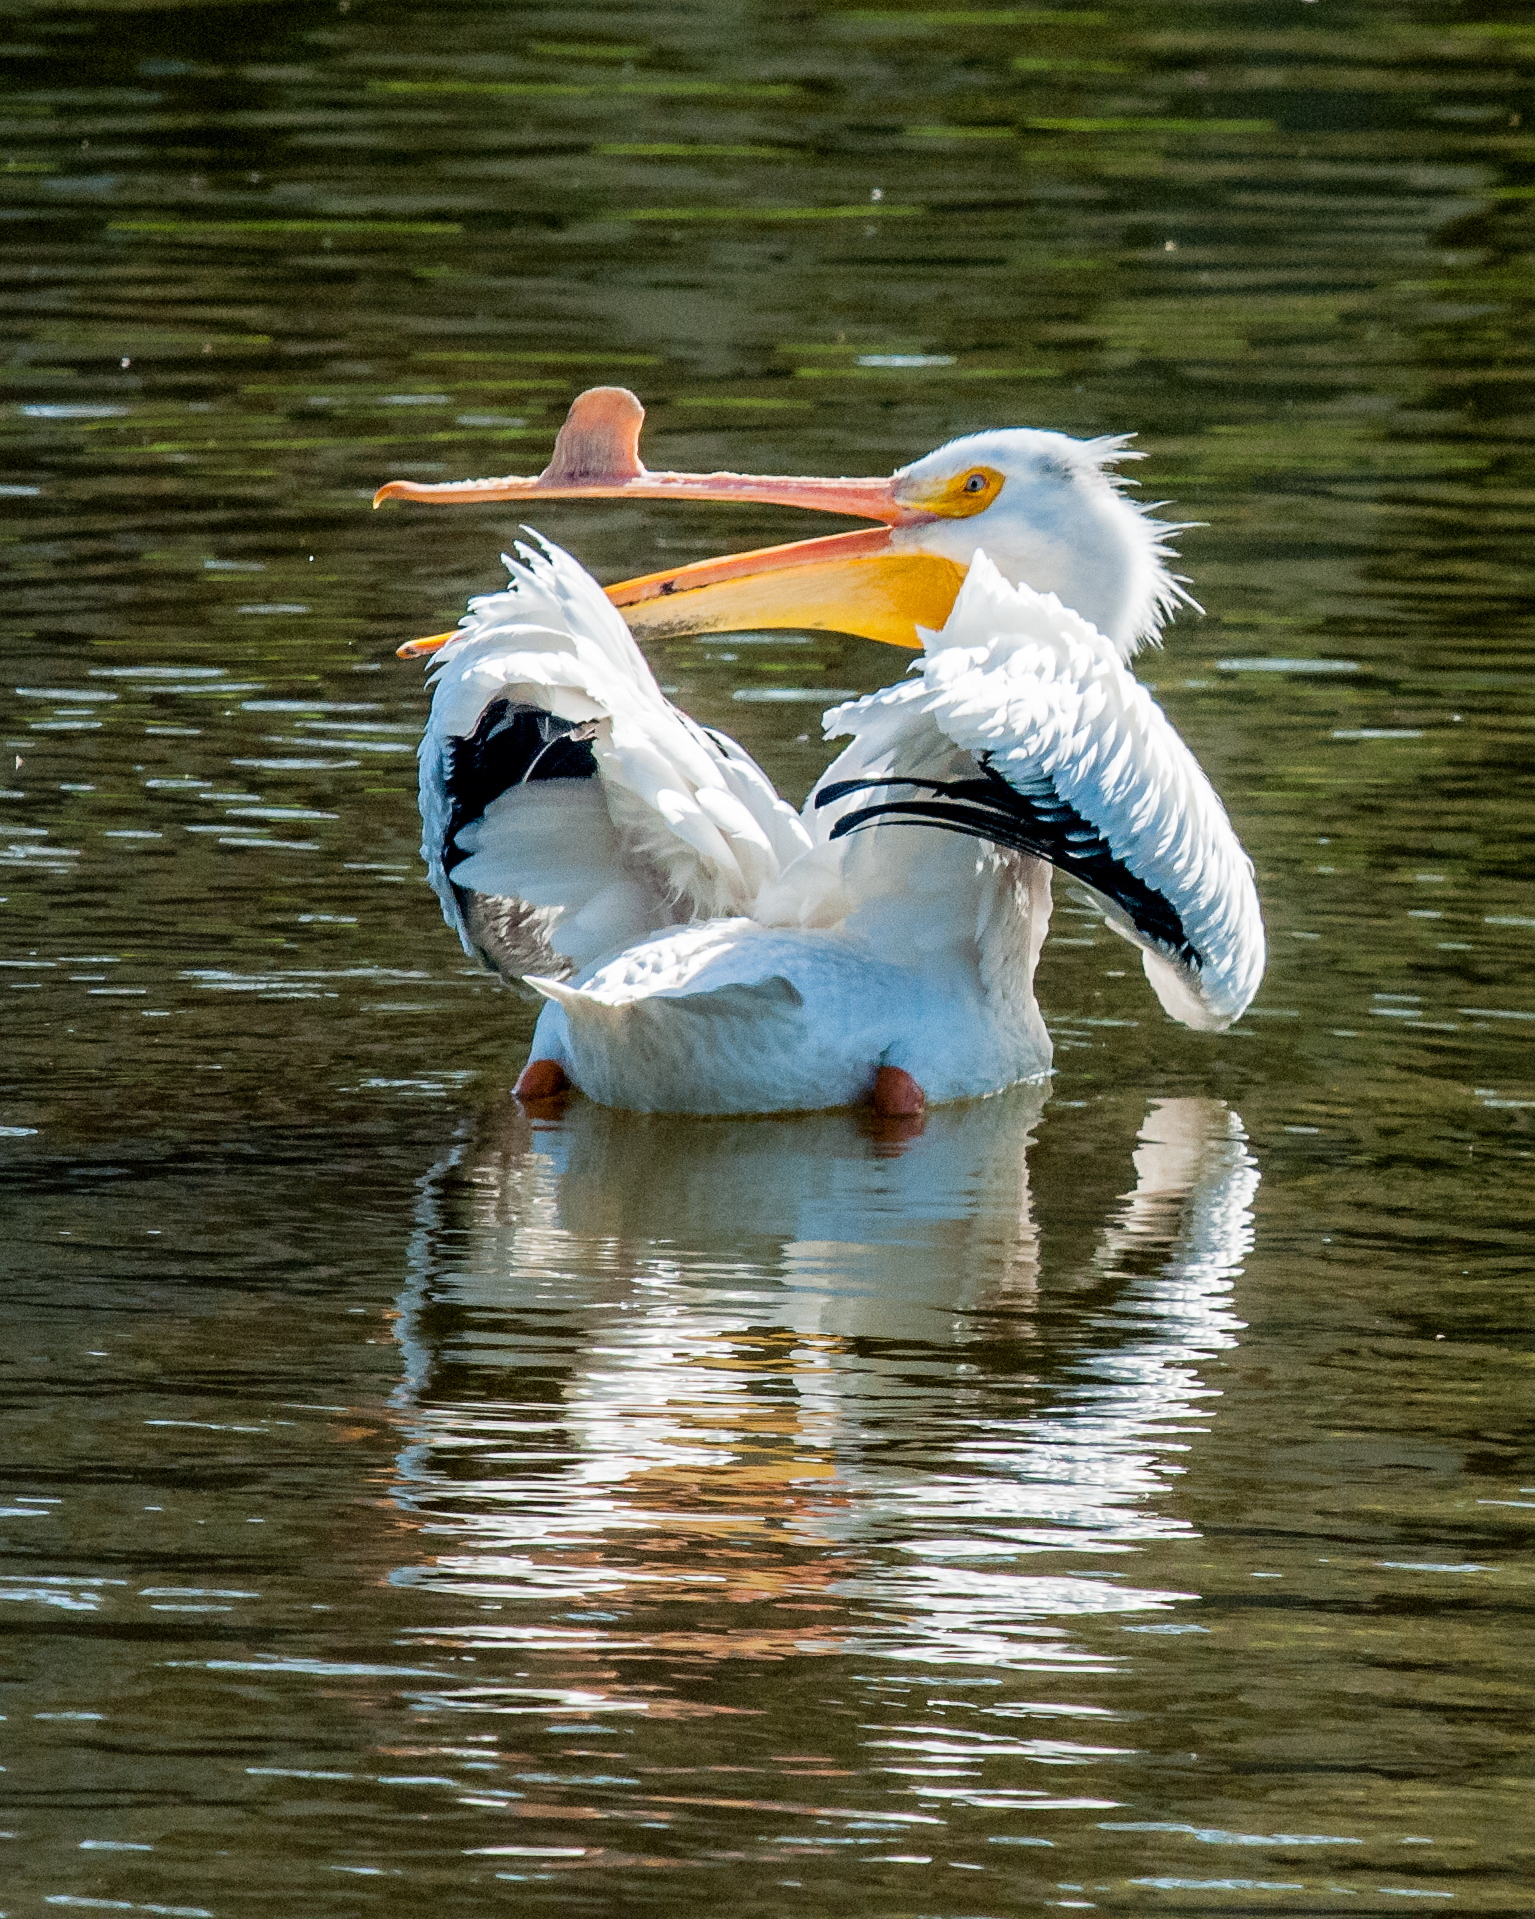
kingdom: Animalia
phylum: Chordata
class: Aves
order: Pelecaniformes
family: Pelecanidae
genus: Pelecanus
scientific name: Pelecanus erythrorhynchos
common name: American white pelican
